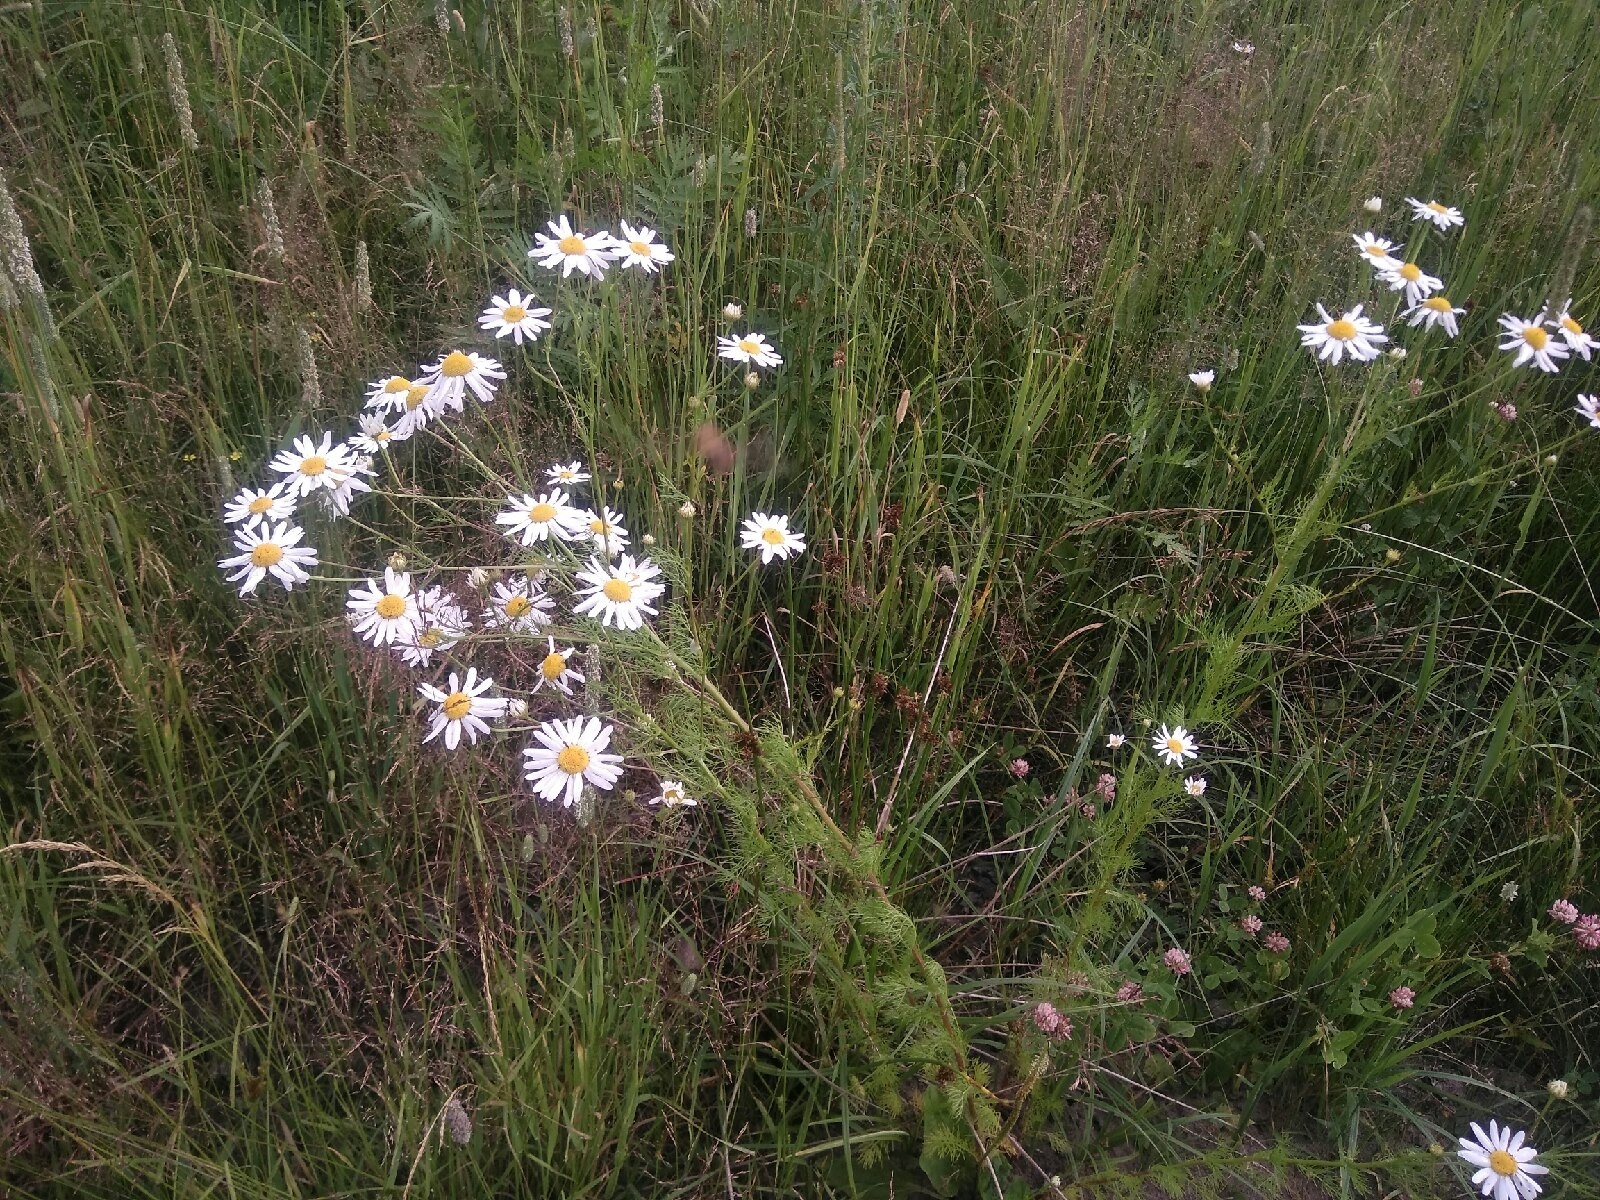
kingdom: Plantae
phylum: Tracheophyta
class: Magnoliopsida
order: Asterales
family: Asteraceae
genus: Tripleurospermum
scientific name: Tripleurospermum inodorum
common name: Scentless mayweed
